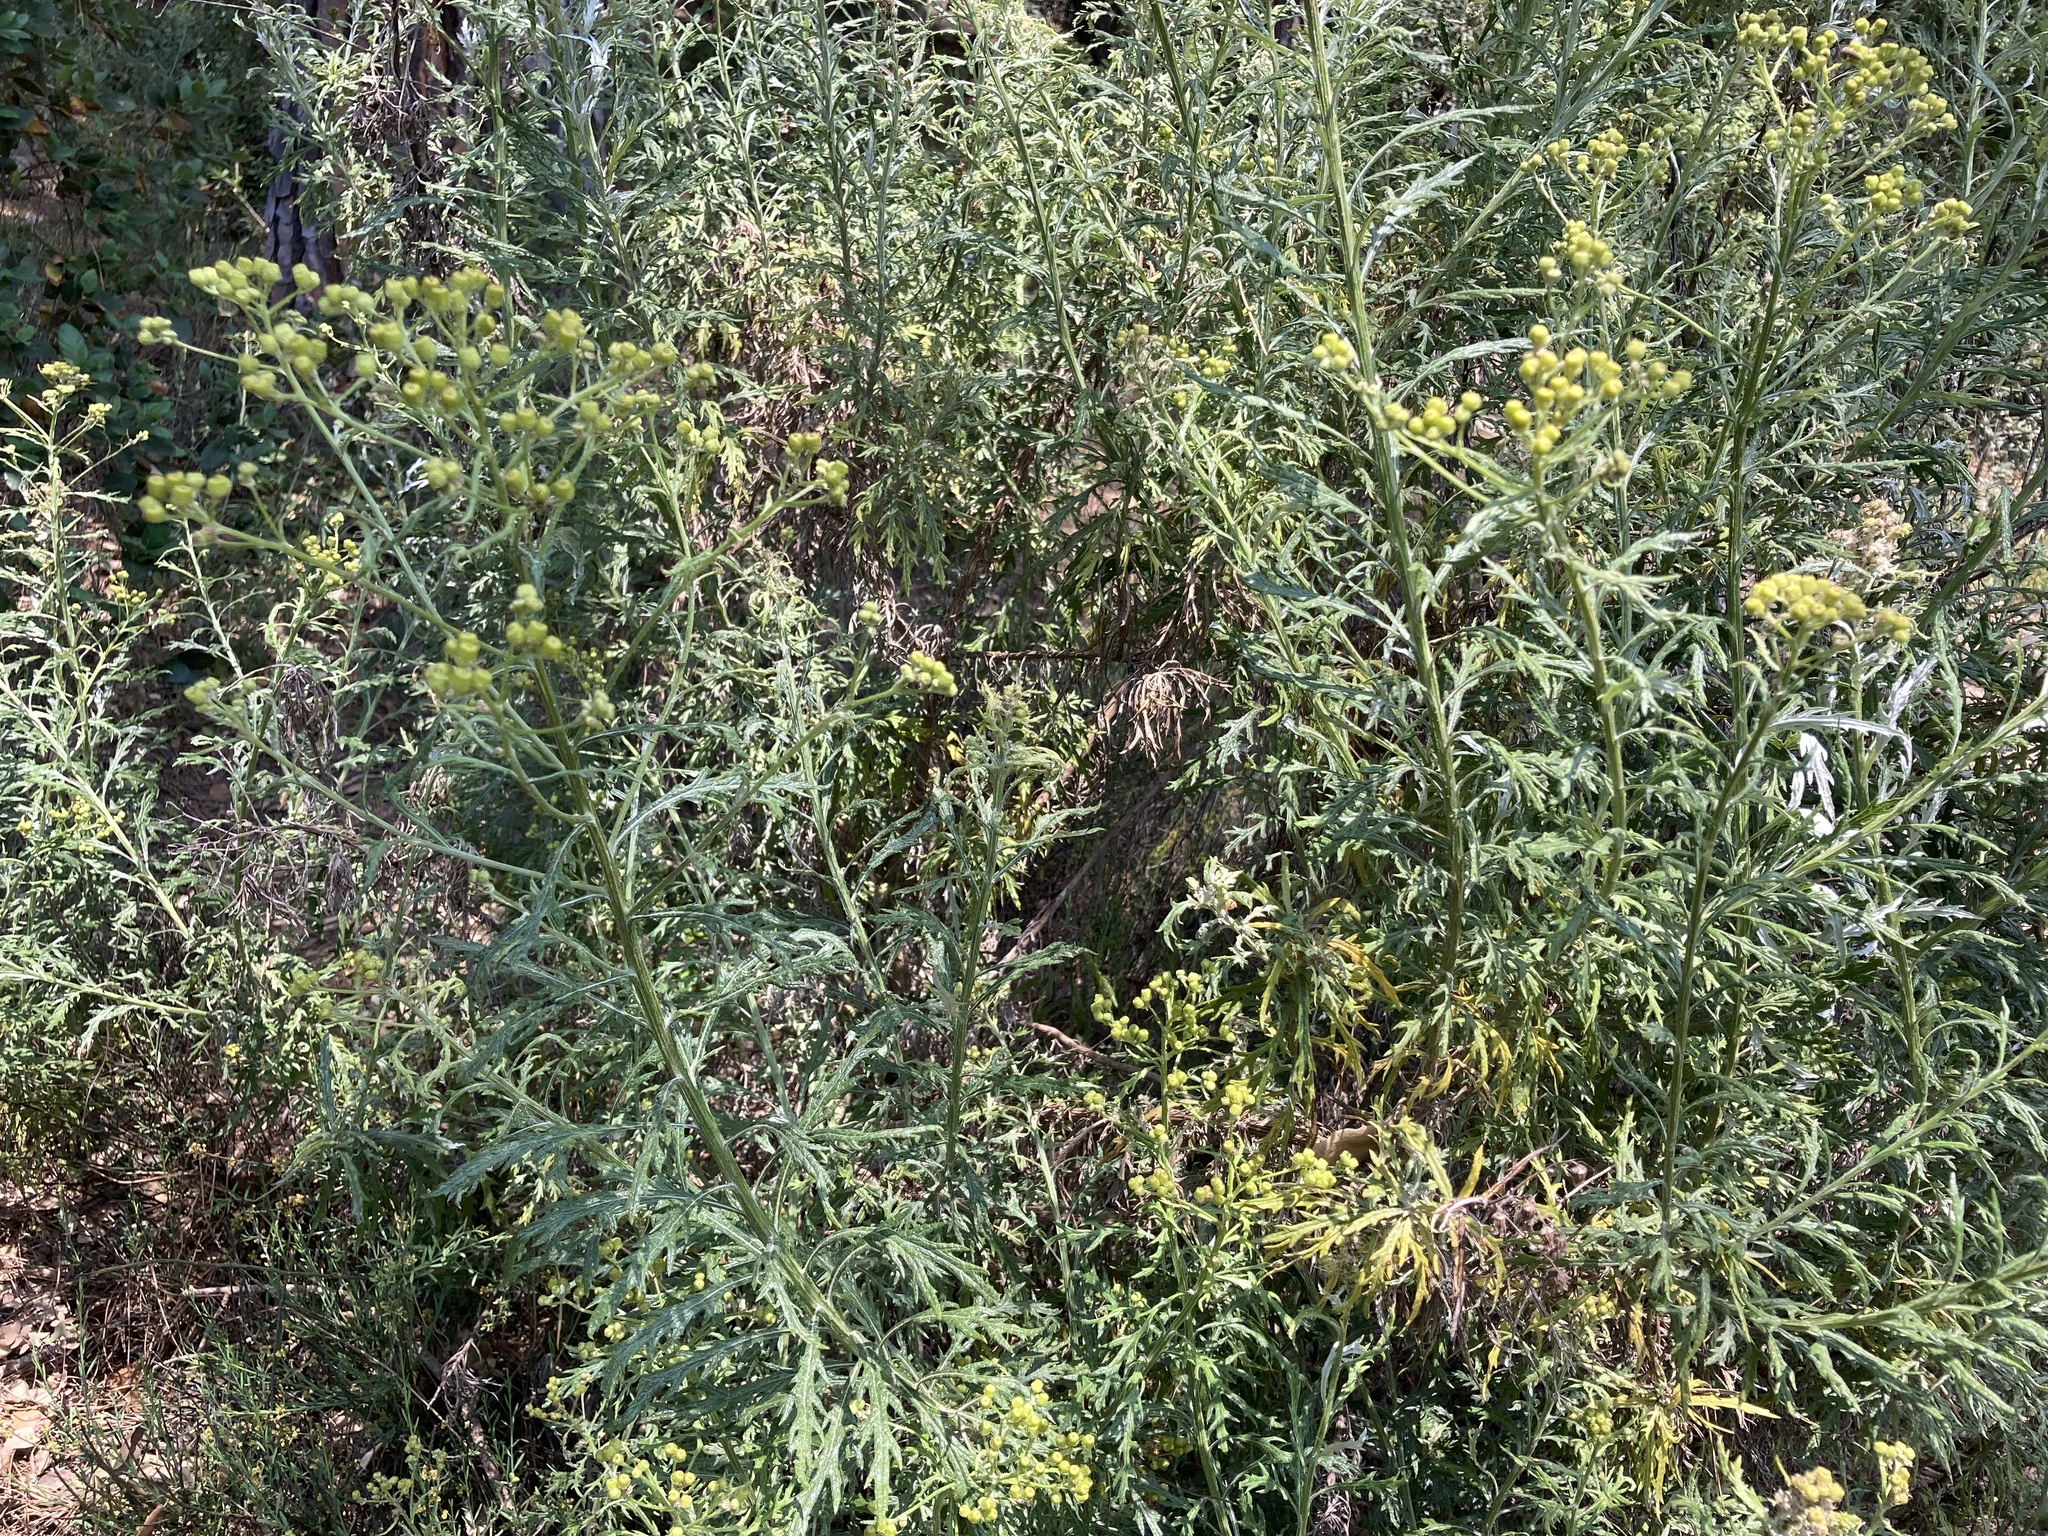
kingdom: Plantae
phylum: Tracheophyta
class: Magnoliopsida
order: Asterales
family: Asteraceae
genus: Senecio
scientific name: Senecio pterophorus
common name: Shoddy ragwort
